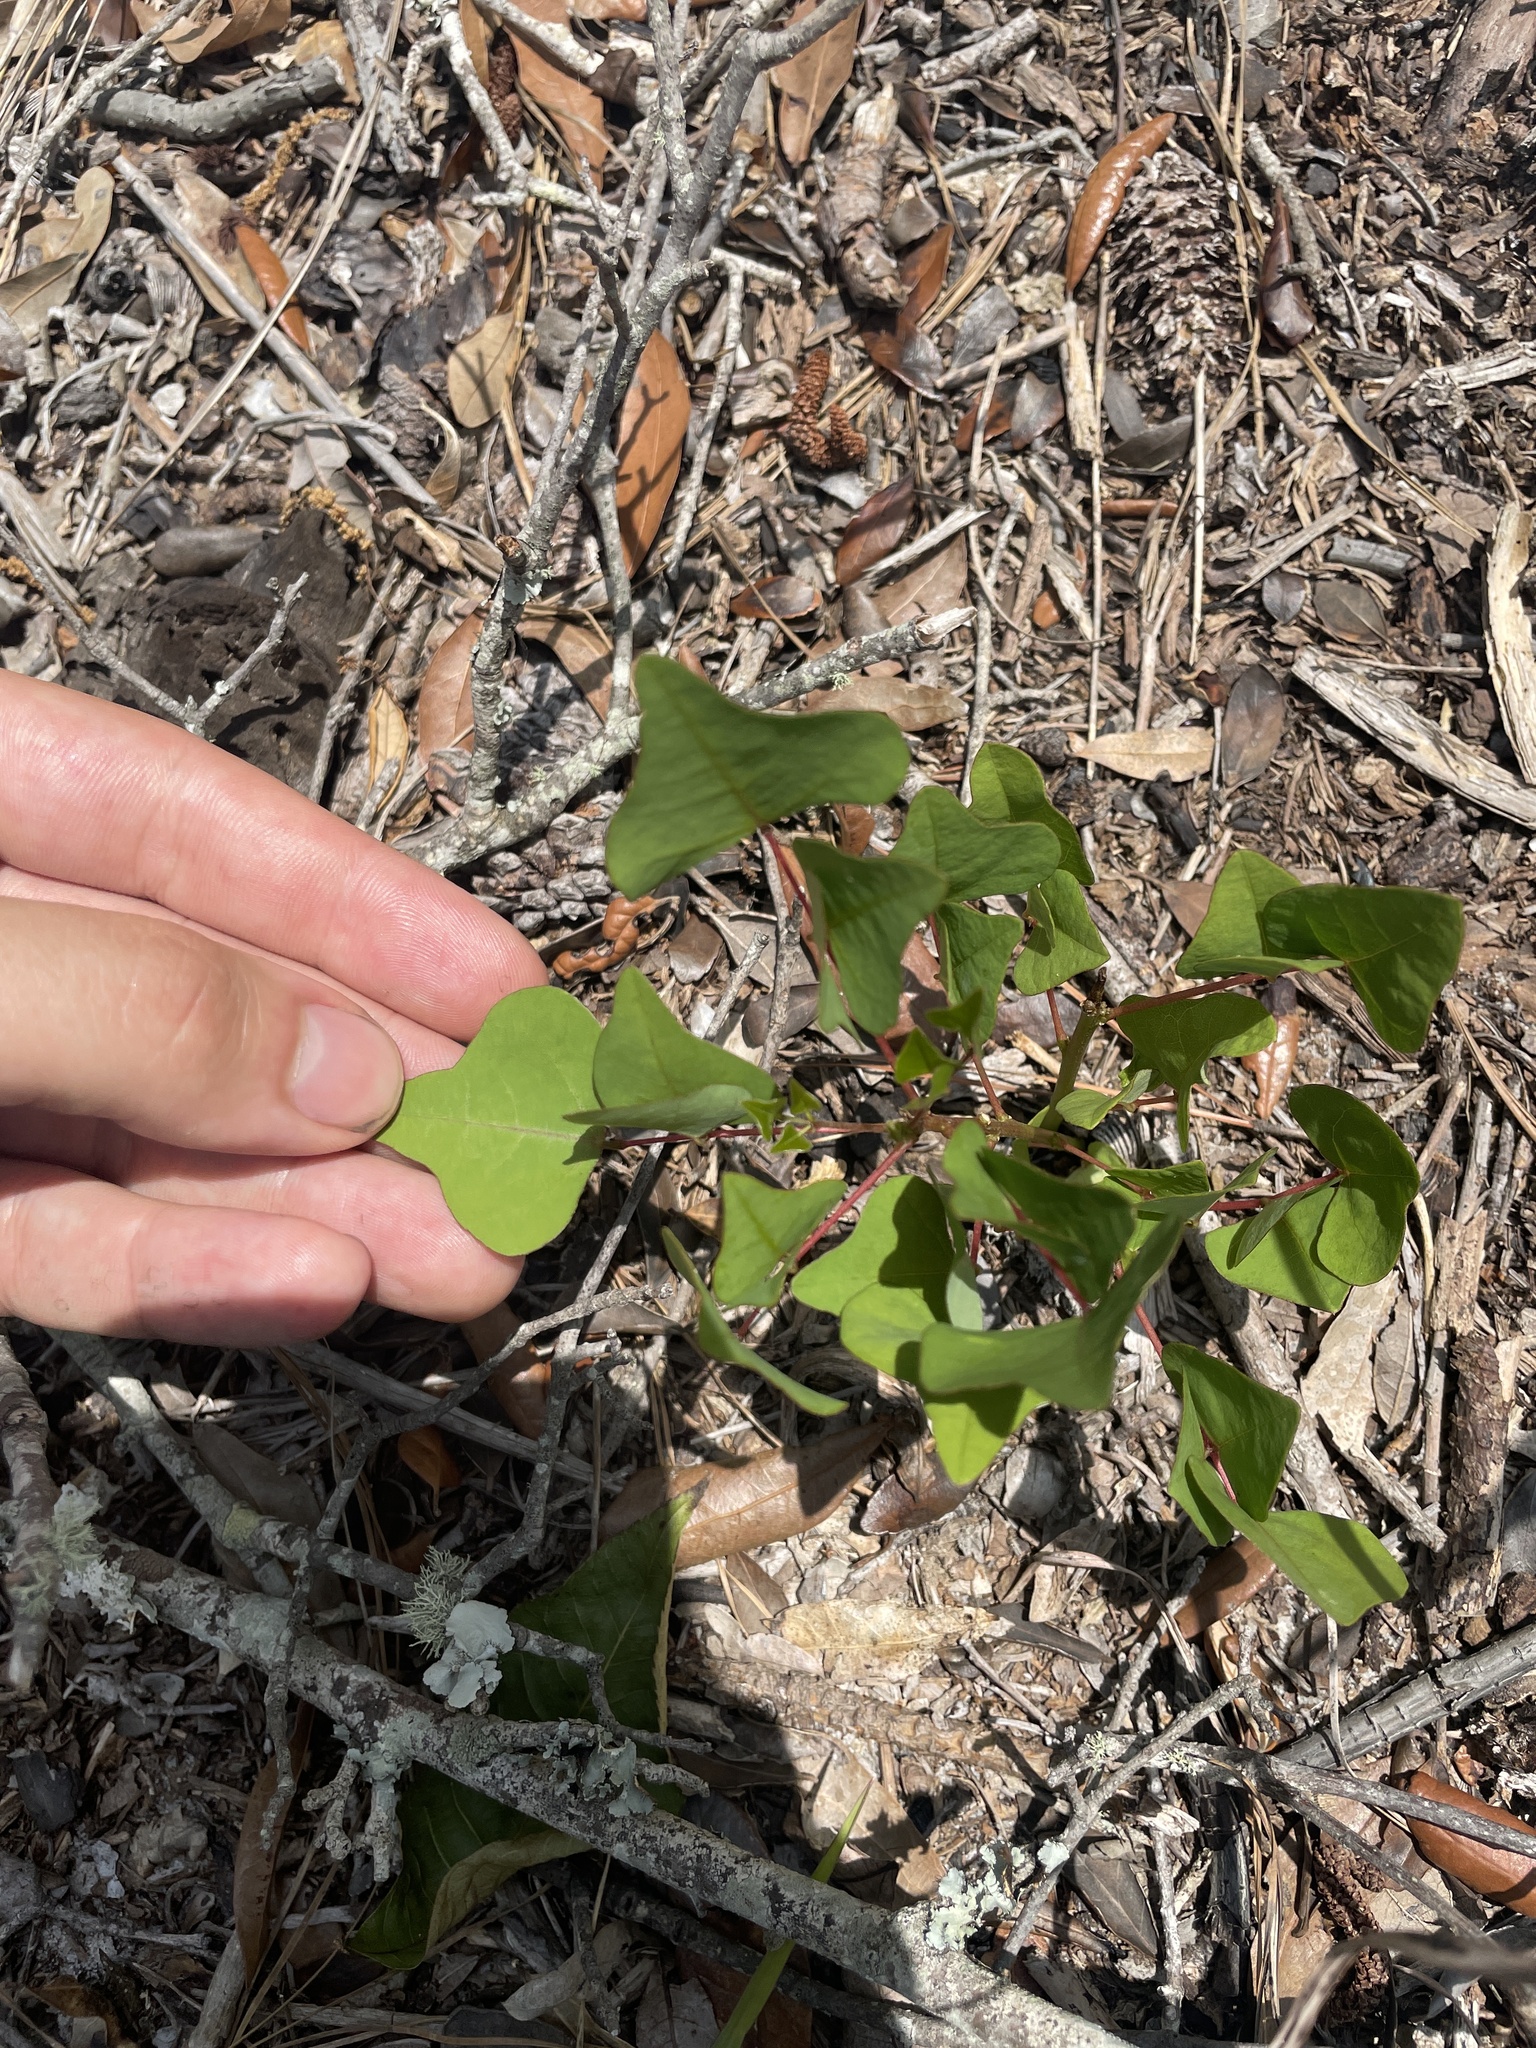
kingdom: Plantae
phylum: Tracheophyta
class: Magnoliopsida
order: Fabales
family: Fabaceae
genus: Erythrina
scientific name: Erythrina herbacea
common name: Coral-bean
